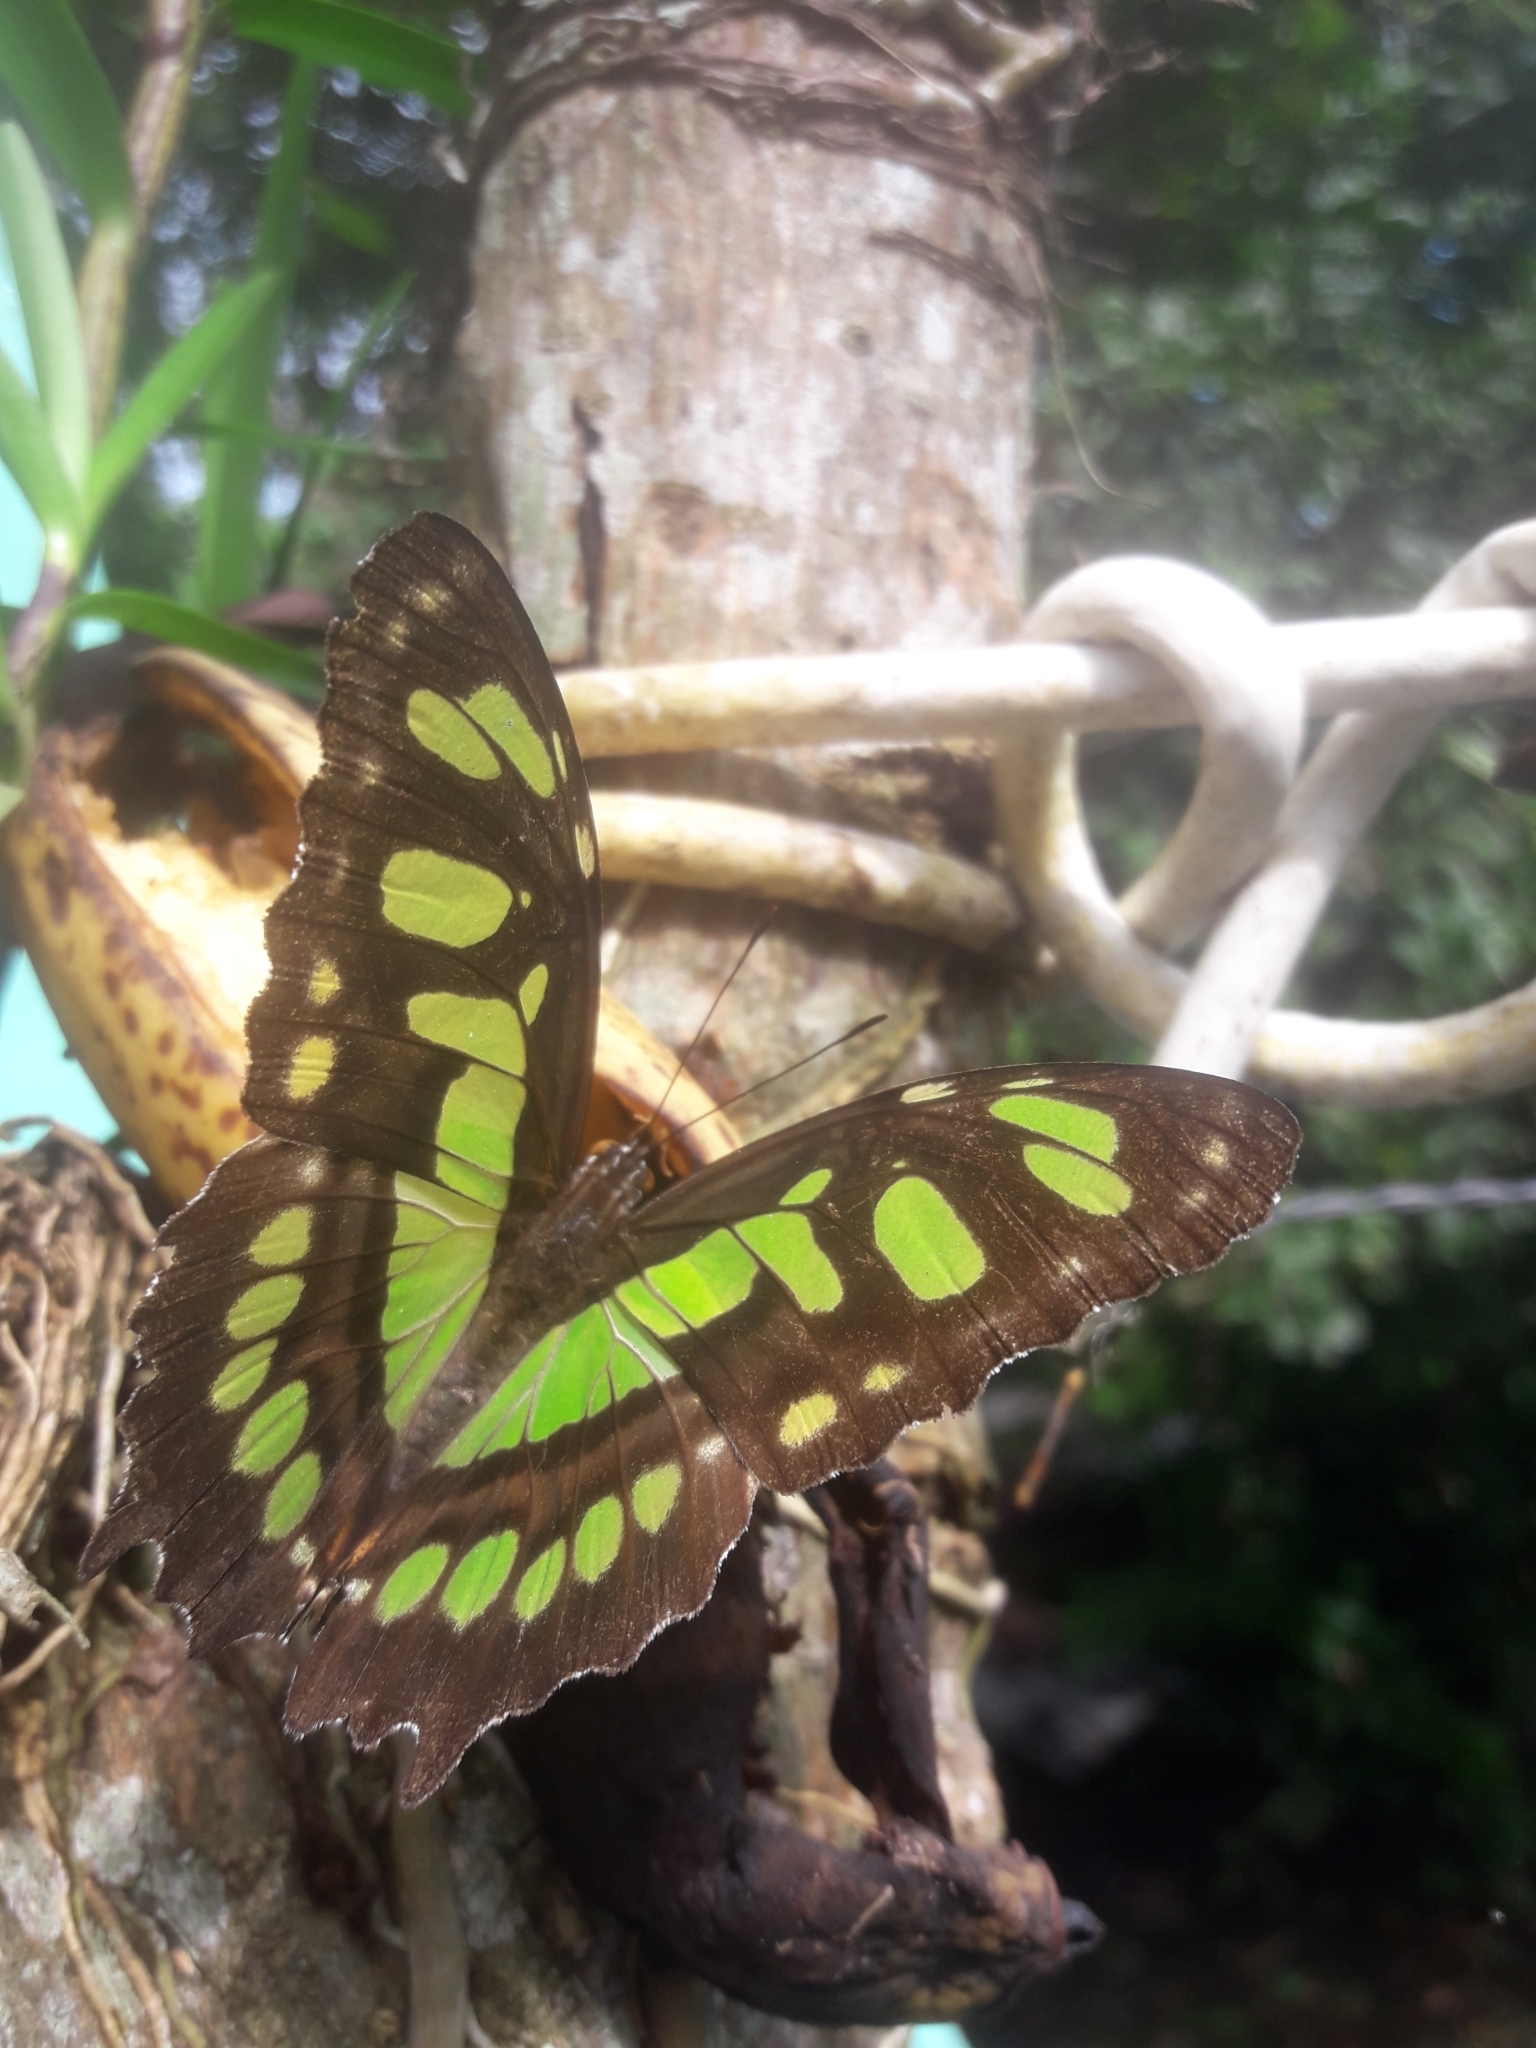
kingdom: Animalia
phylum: Arthropoda
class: Insecta
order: Lepidoptera
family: Nymphalidae
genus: Siproeta
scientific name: Siproeta stelenes
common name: Malachite
